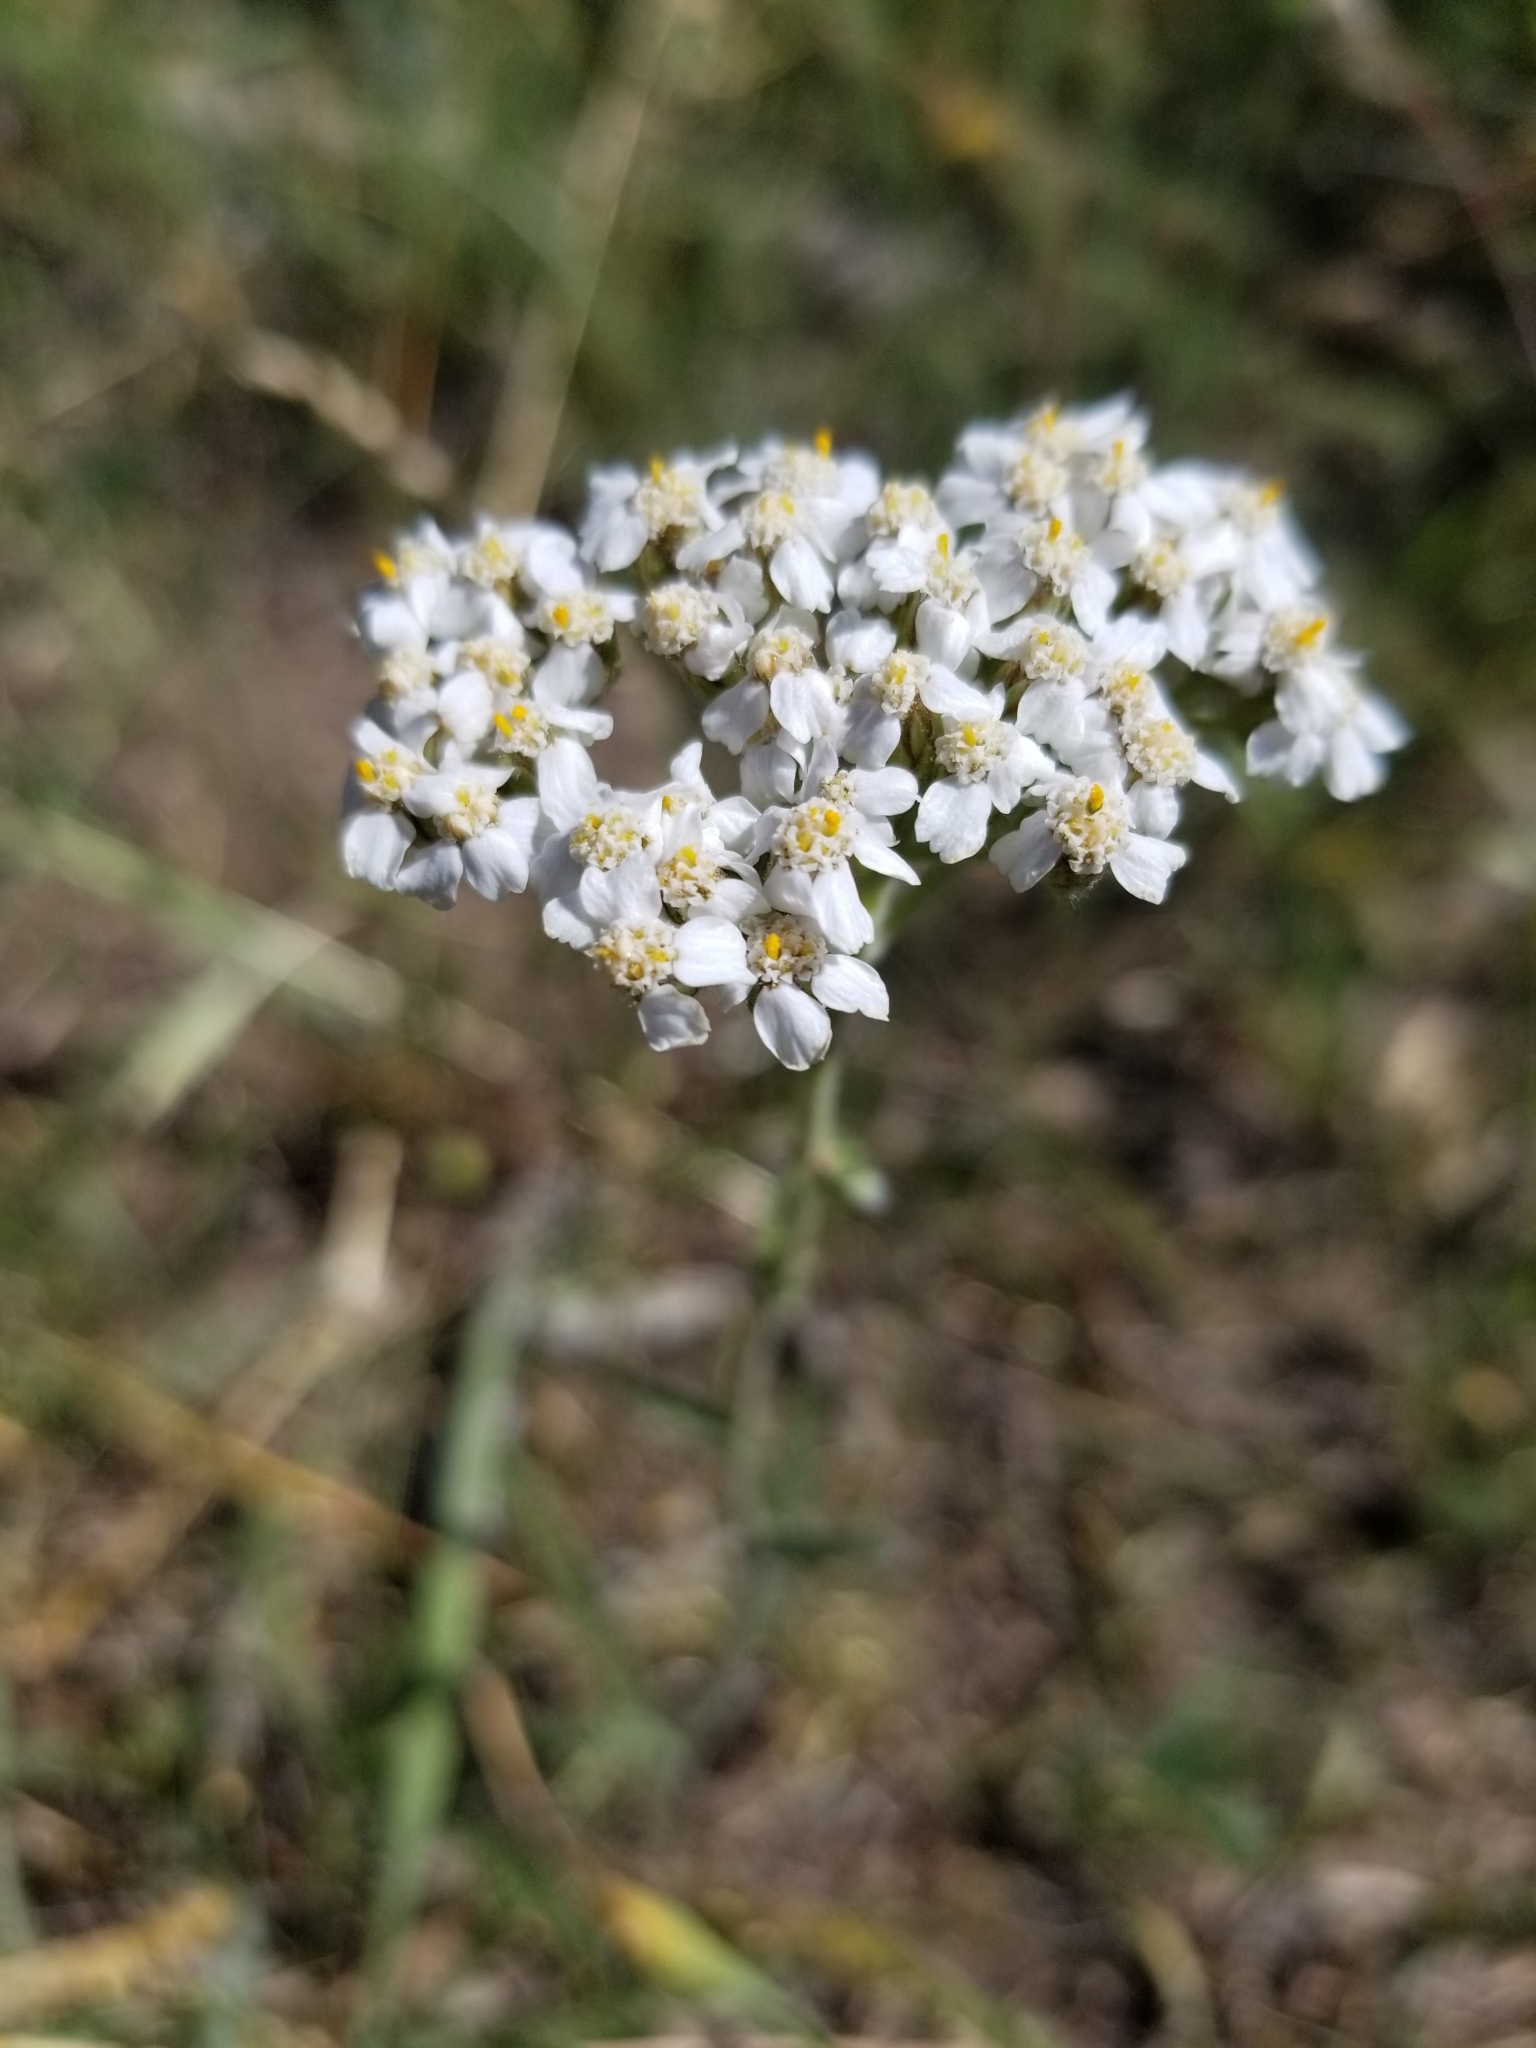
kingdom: Plantae
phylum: Tracheophyta
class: Magnoliopsida
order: Asterales
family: Asteraceae
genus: Achillea
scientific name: Achillea millefolium
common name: Yarrow
